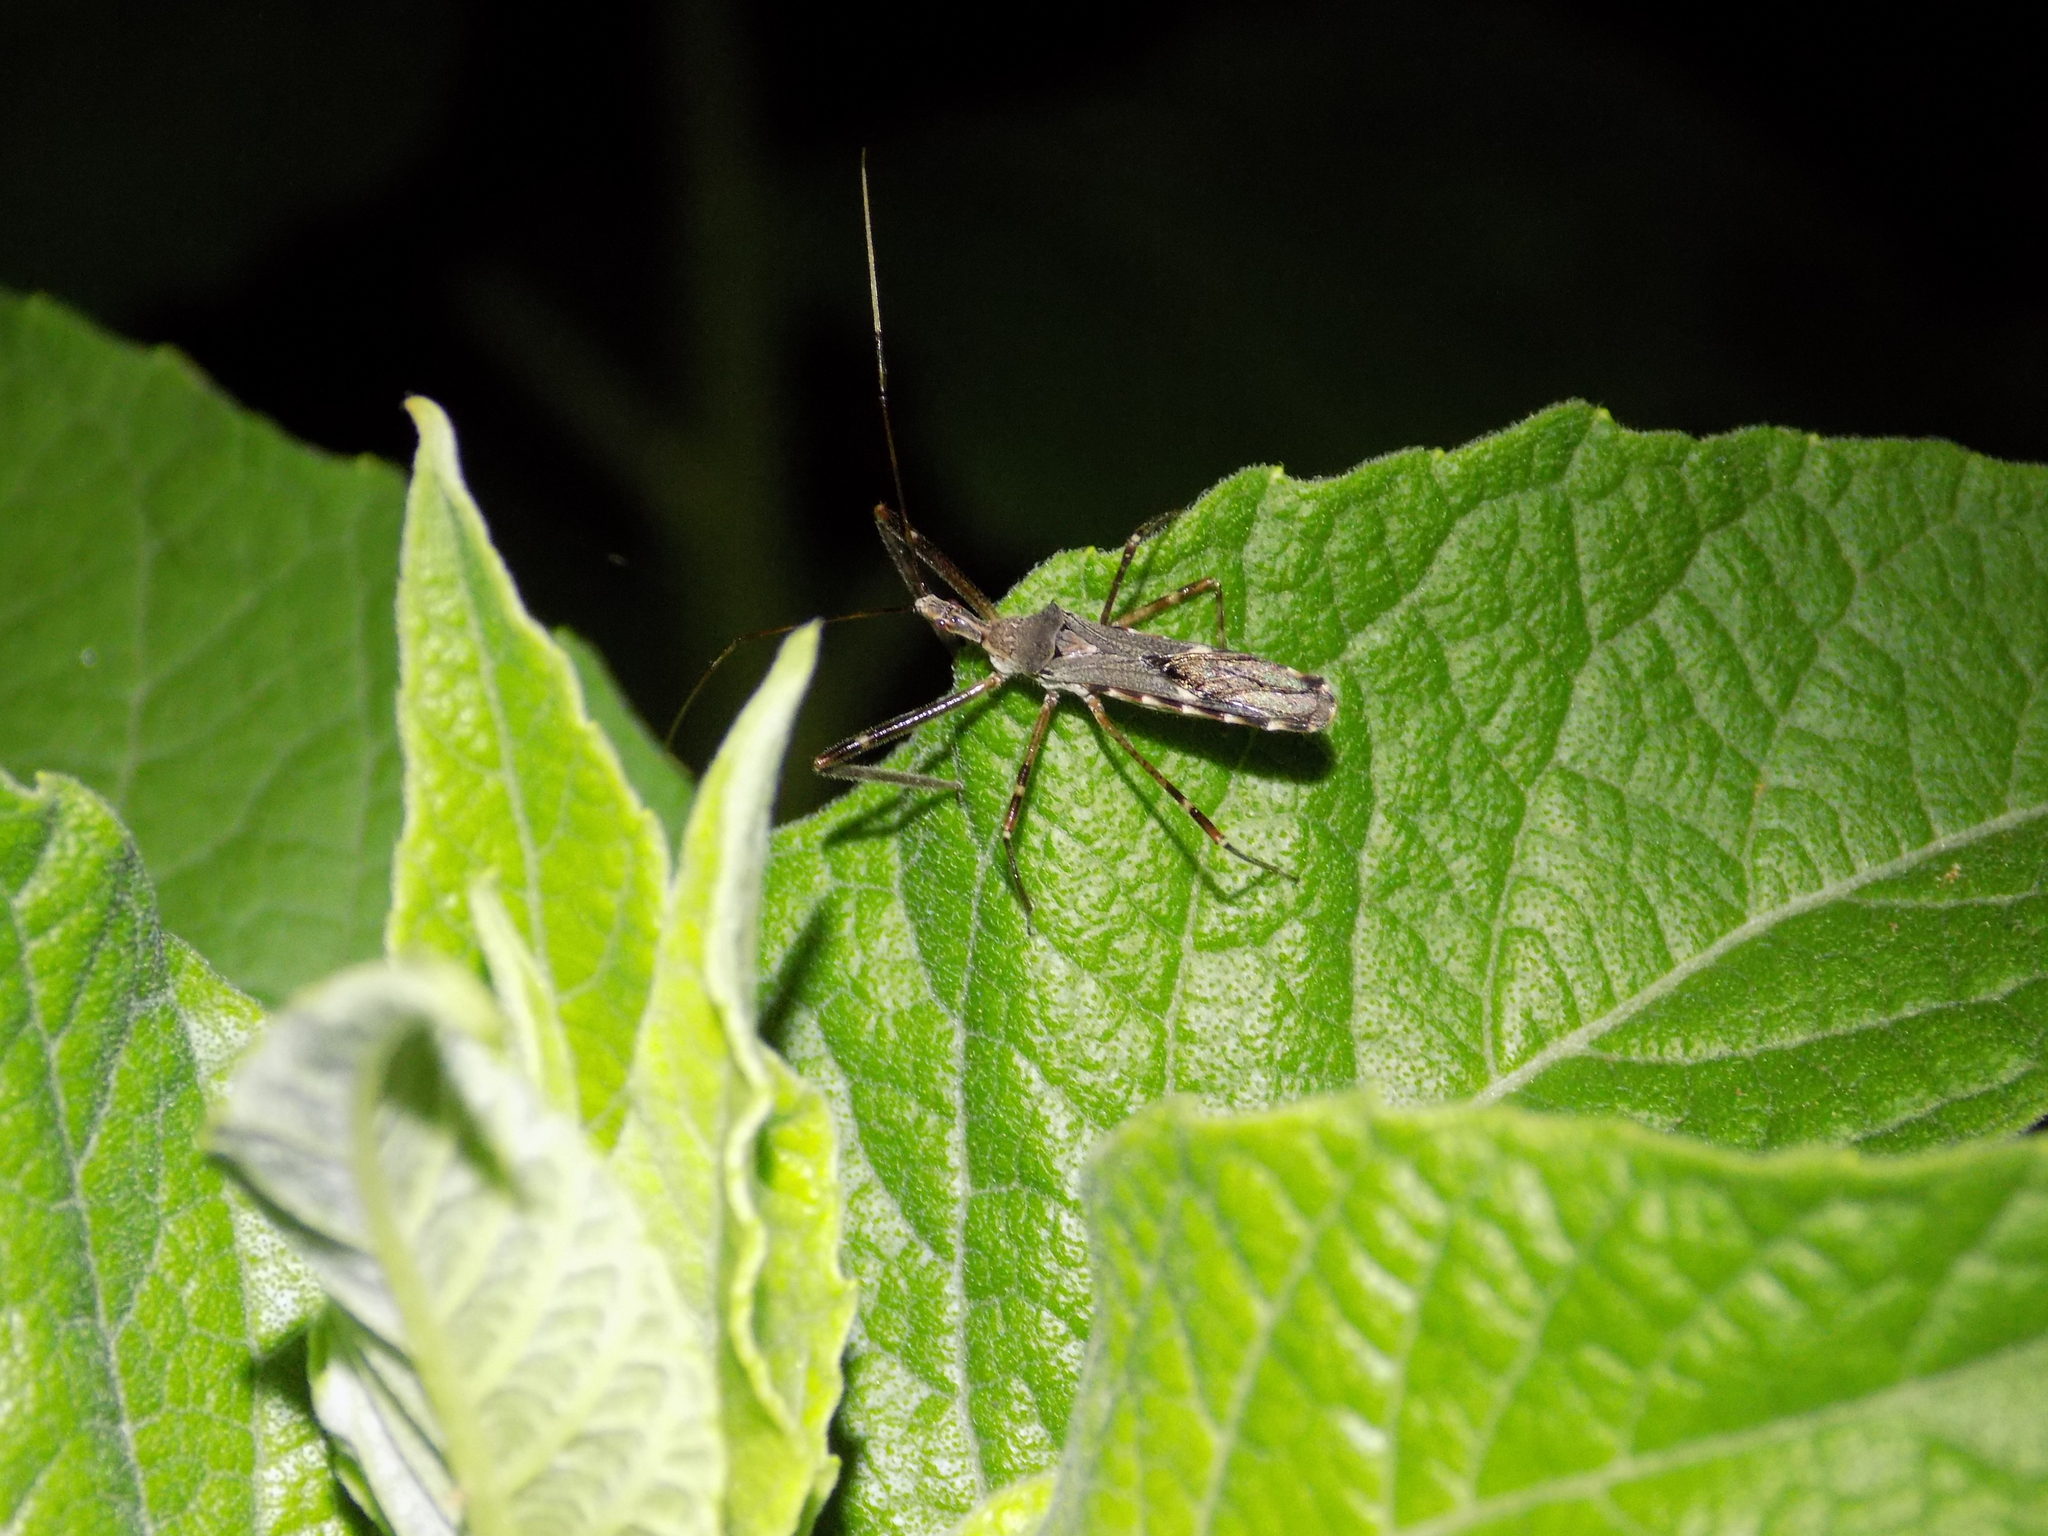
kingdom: Animalia
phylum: Arthropoda
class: Insecta
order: Hemiptera
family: Reduviidae
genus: Zelus
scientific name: Zelus tetracanthus
